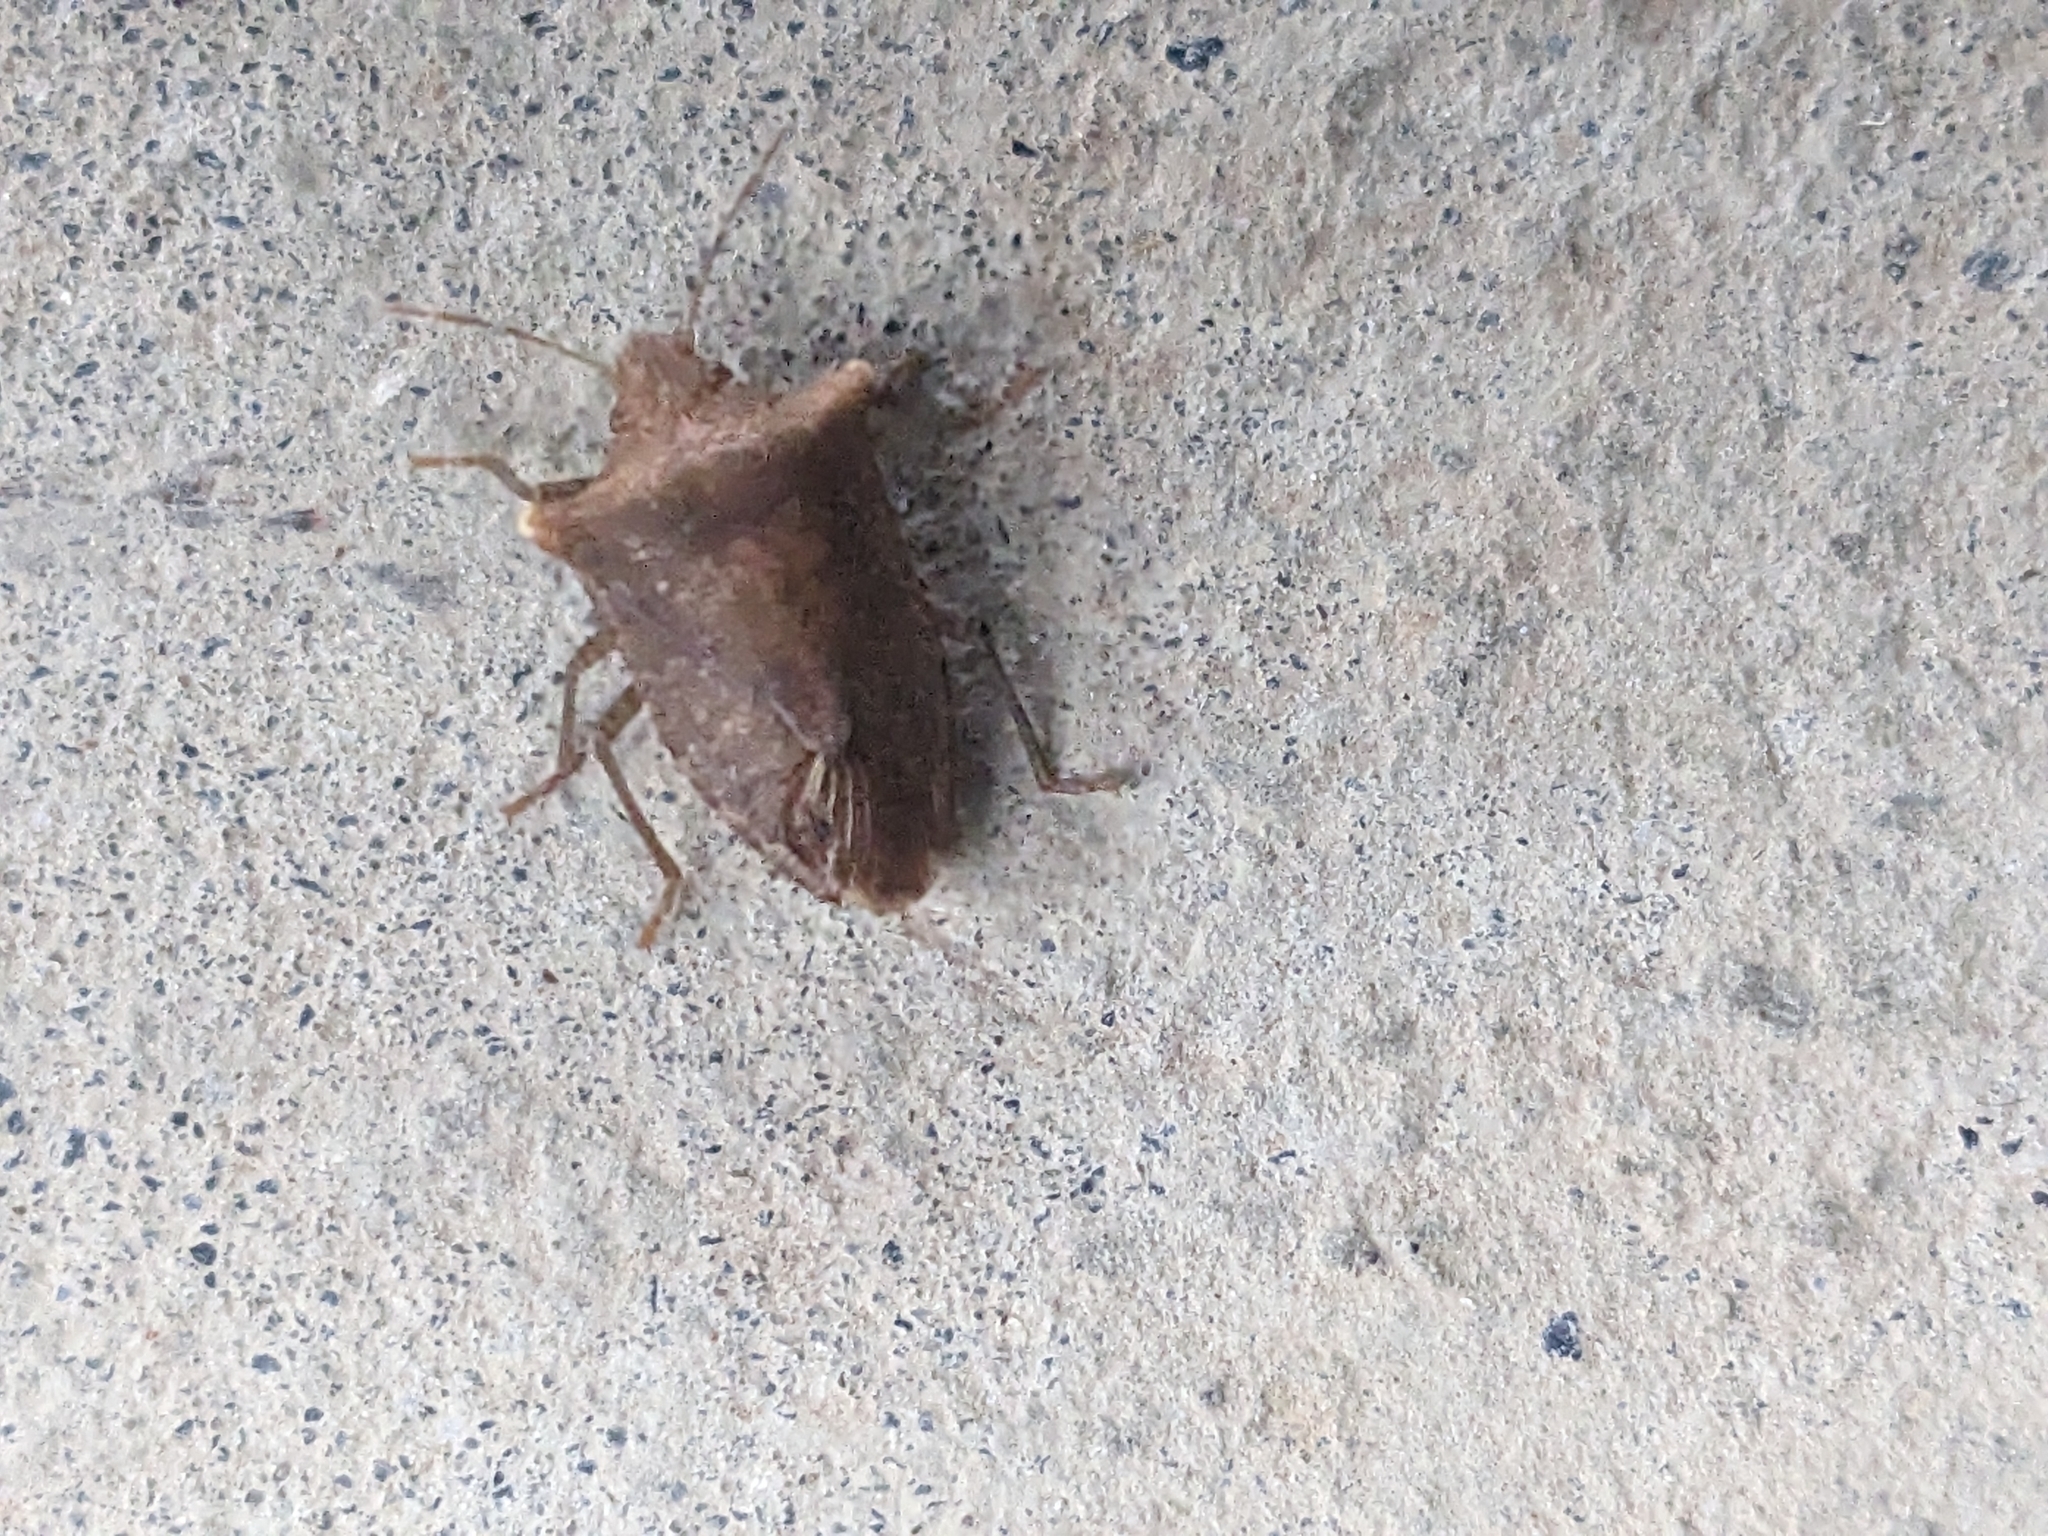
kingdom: Animalia
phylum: Arthropoda
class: Insecta
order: Hemiptera
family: Pentatomidae
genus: Carbula
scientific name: Carbula crassiventris
